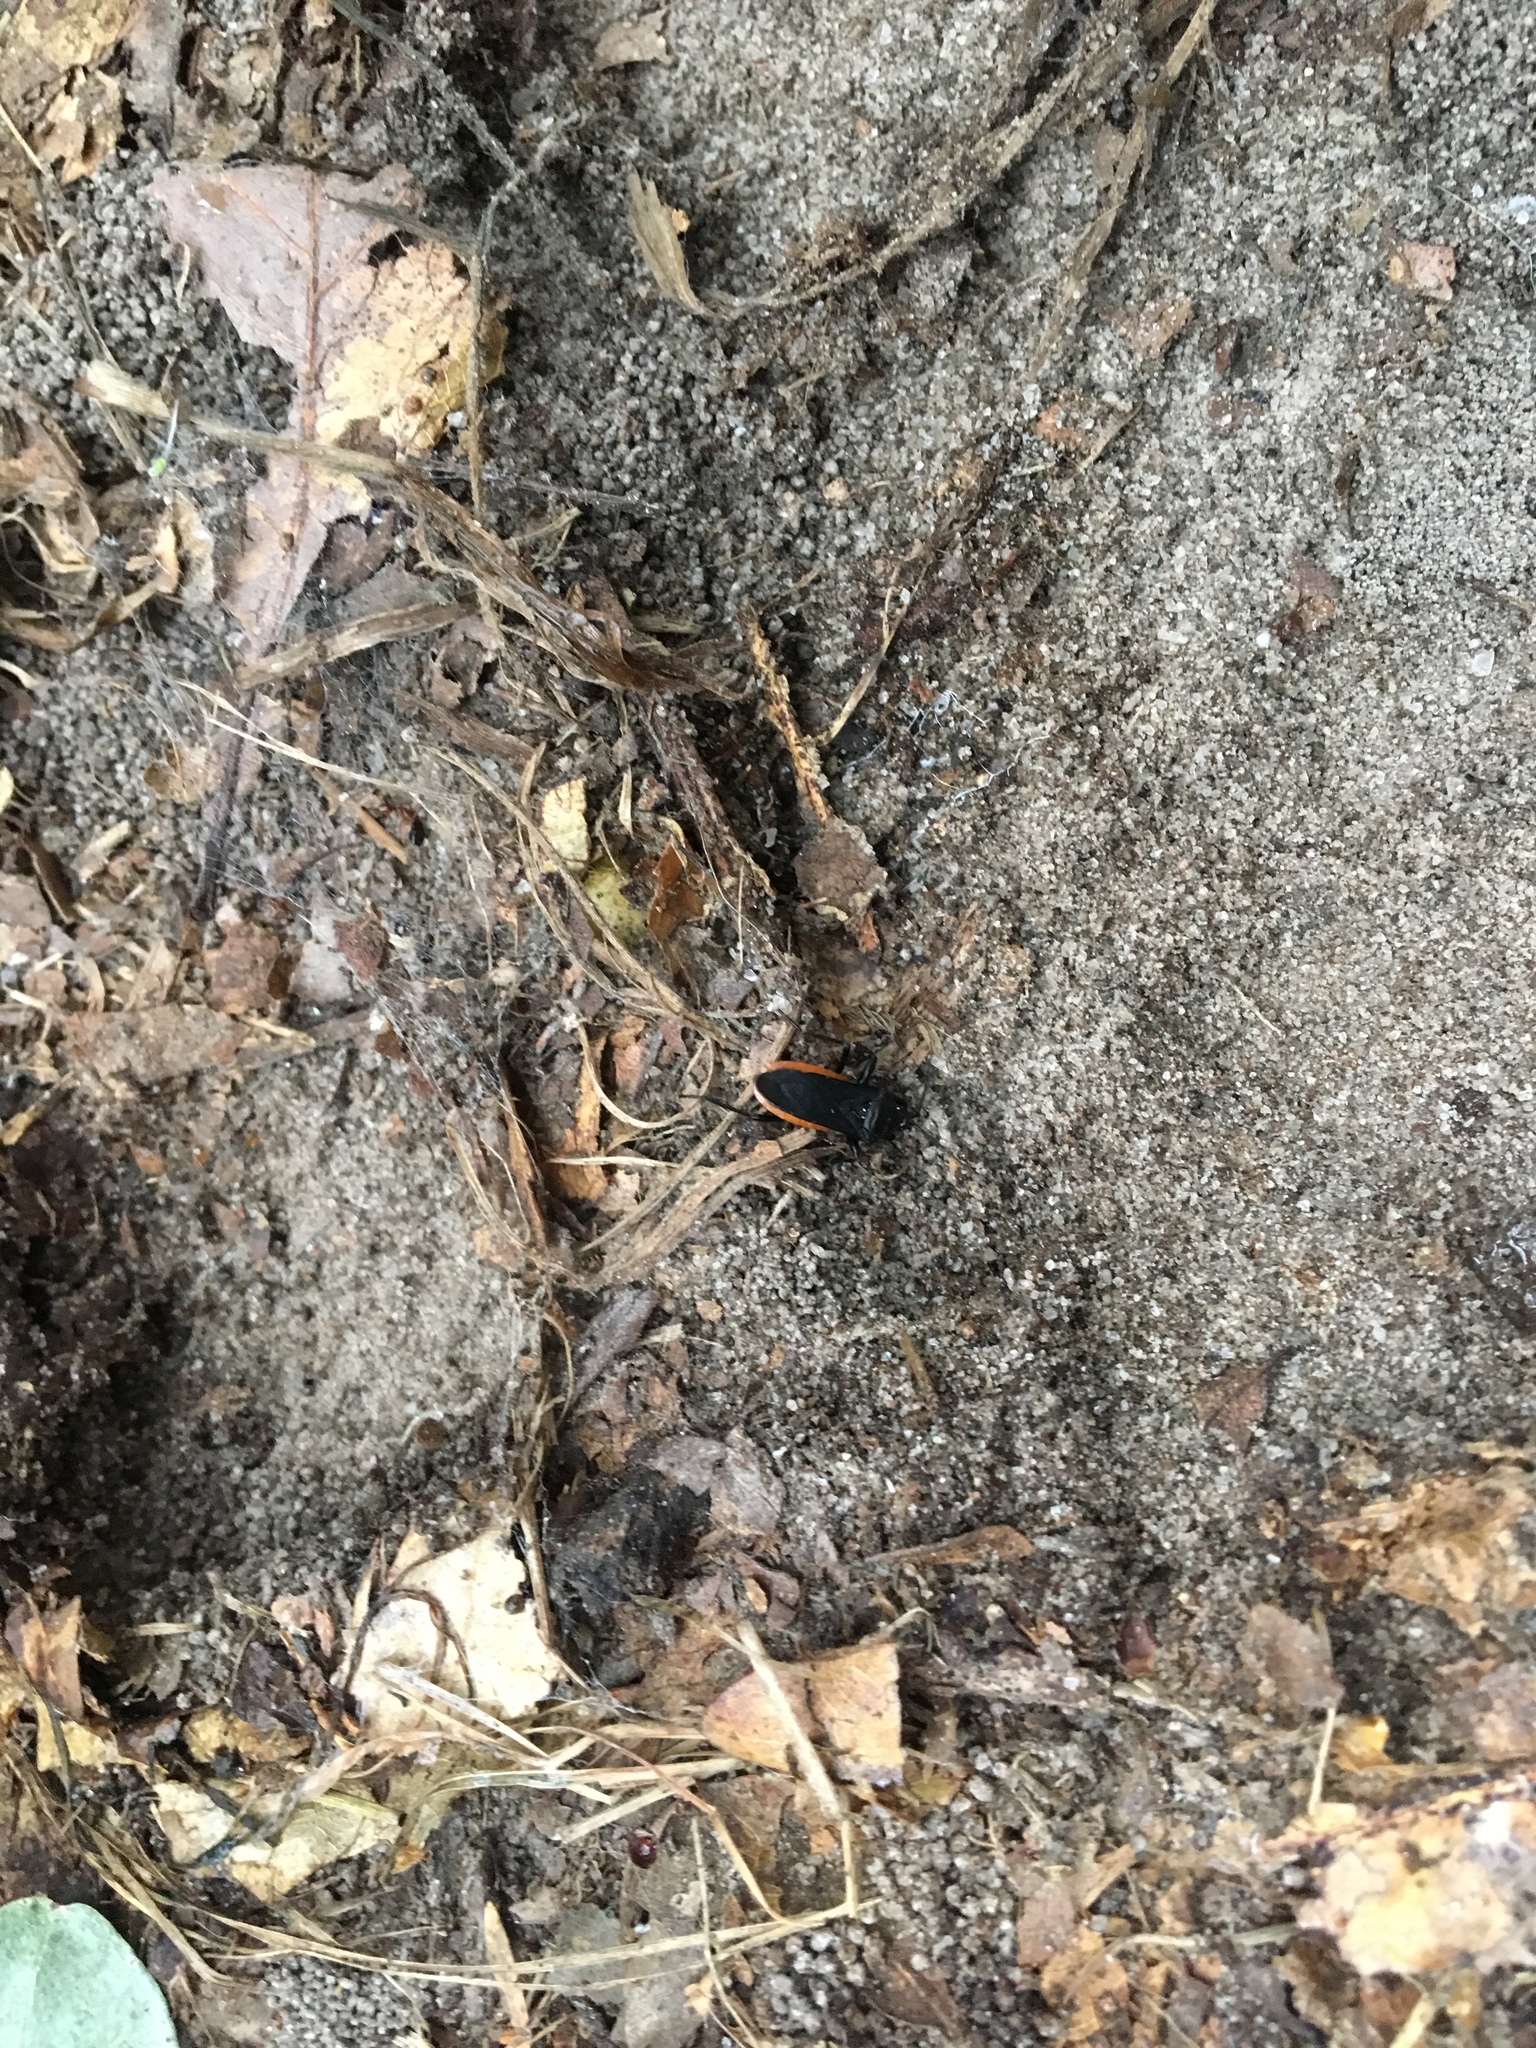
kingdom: Animalia
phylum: Arthropoda
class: Insecta
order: Hemiptera
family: Reduviidae
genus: Melanolestes
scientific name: Melanolestes picipes
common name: Assassin bug
